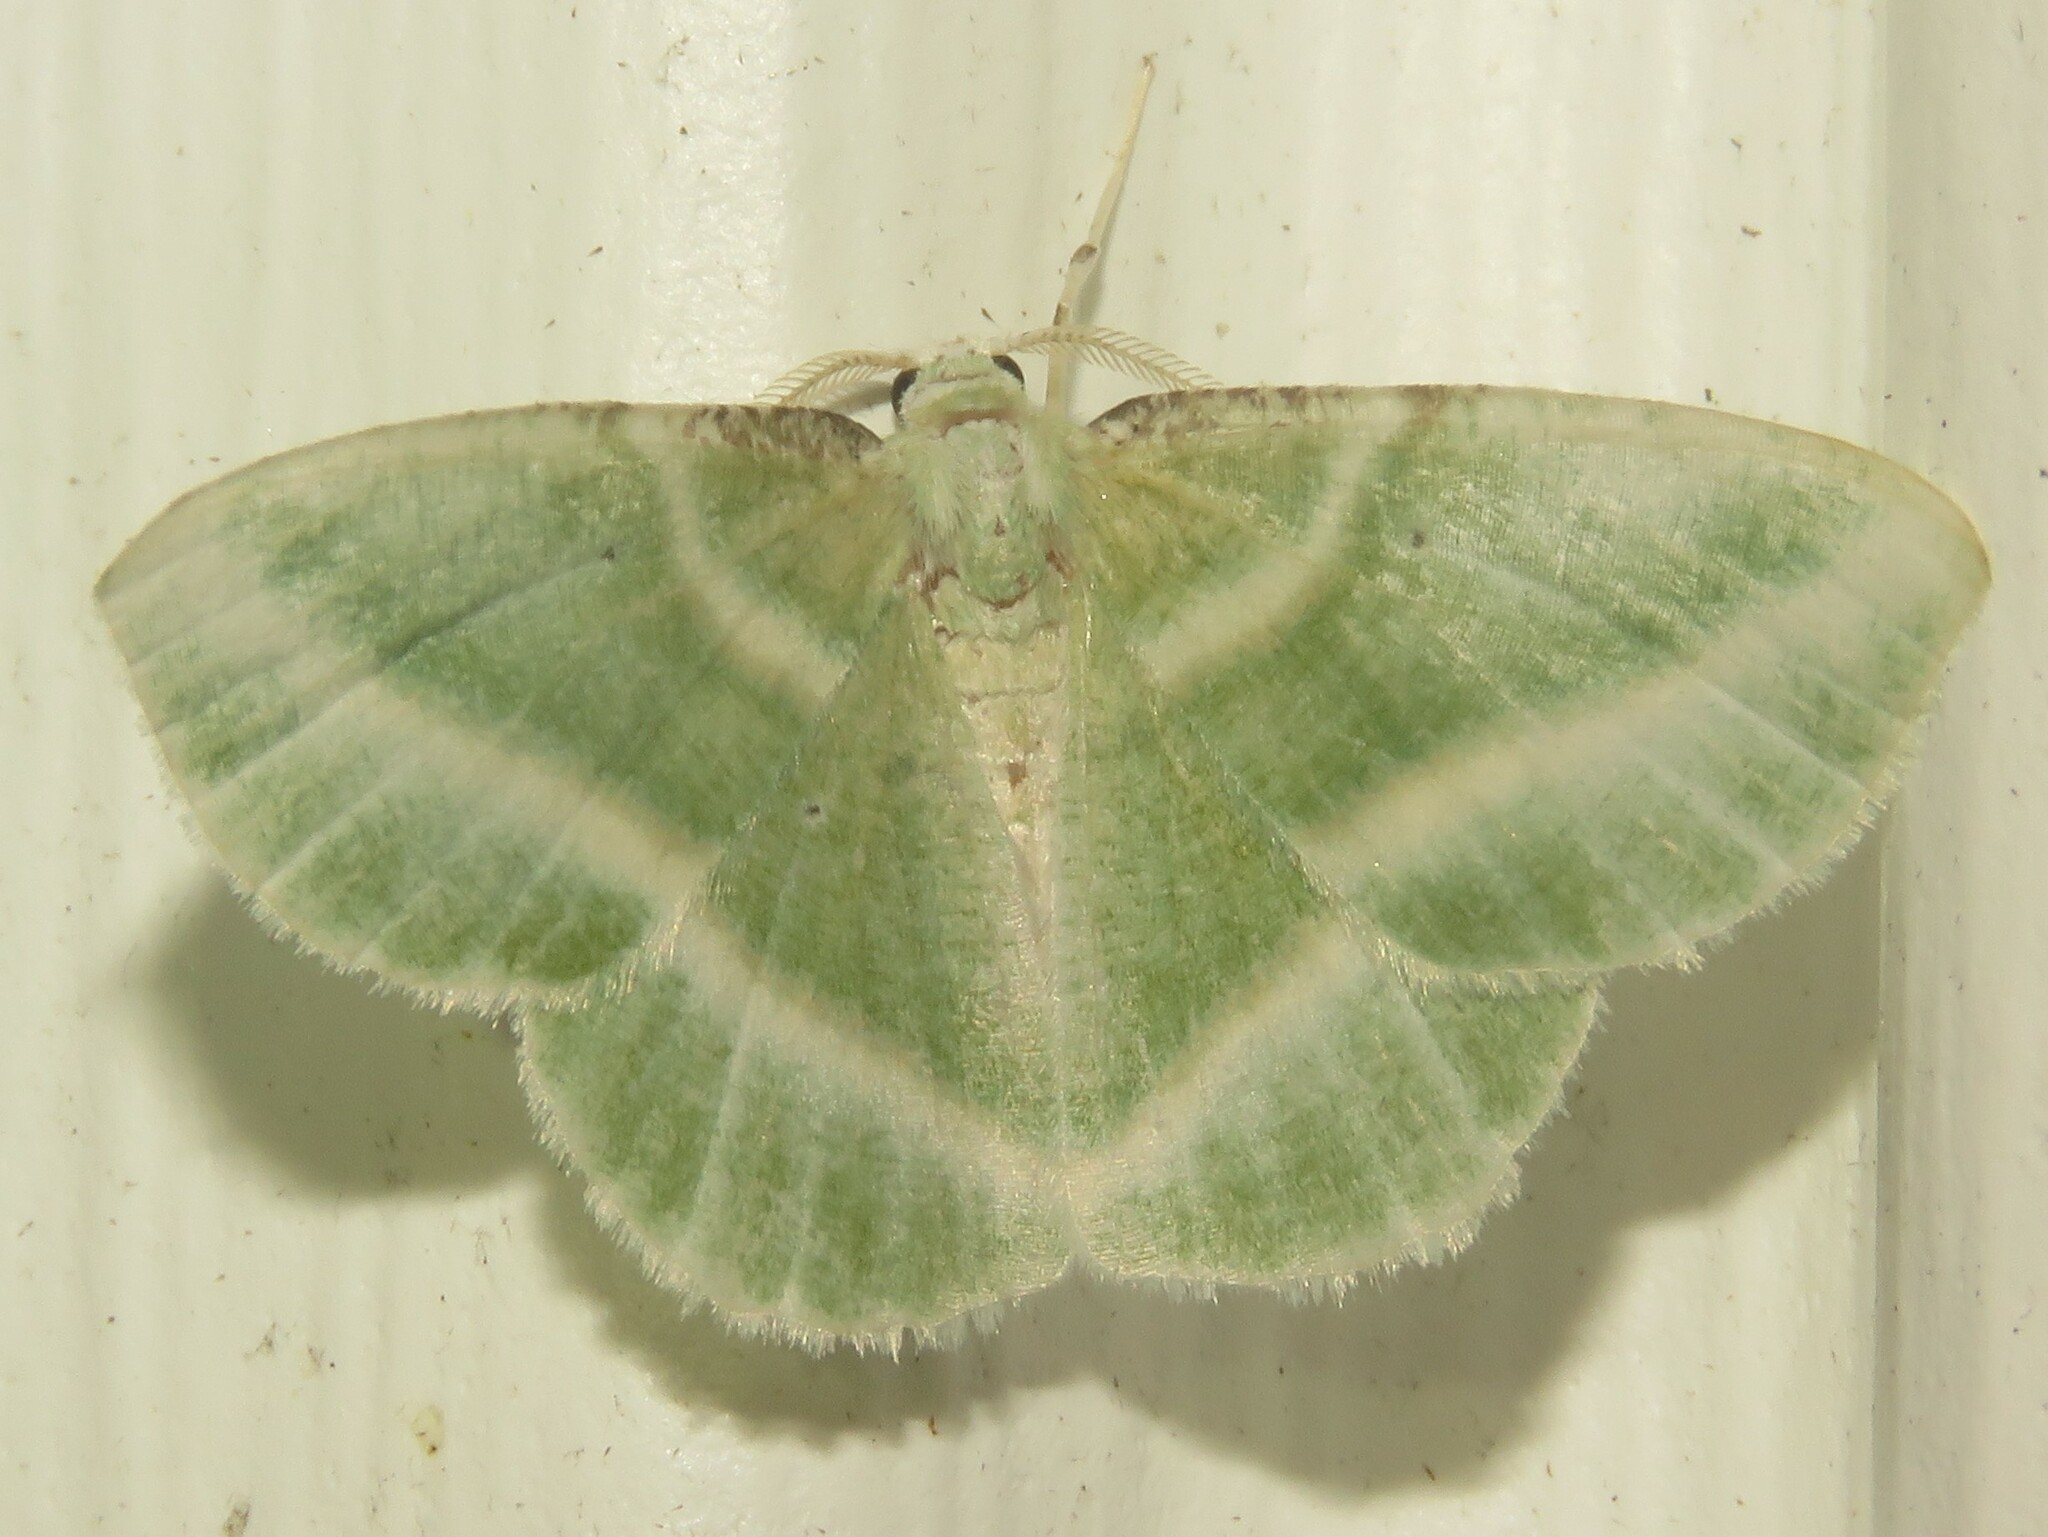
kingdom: Animalia
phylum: Arthropoda
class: Insecta
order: Lepidoptera
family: Geometridae
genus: Dichorda
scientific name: Dichorda iridaria
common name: Showy emerald
